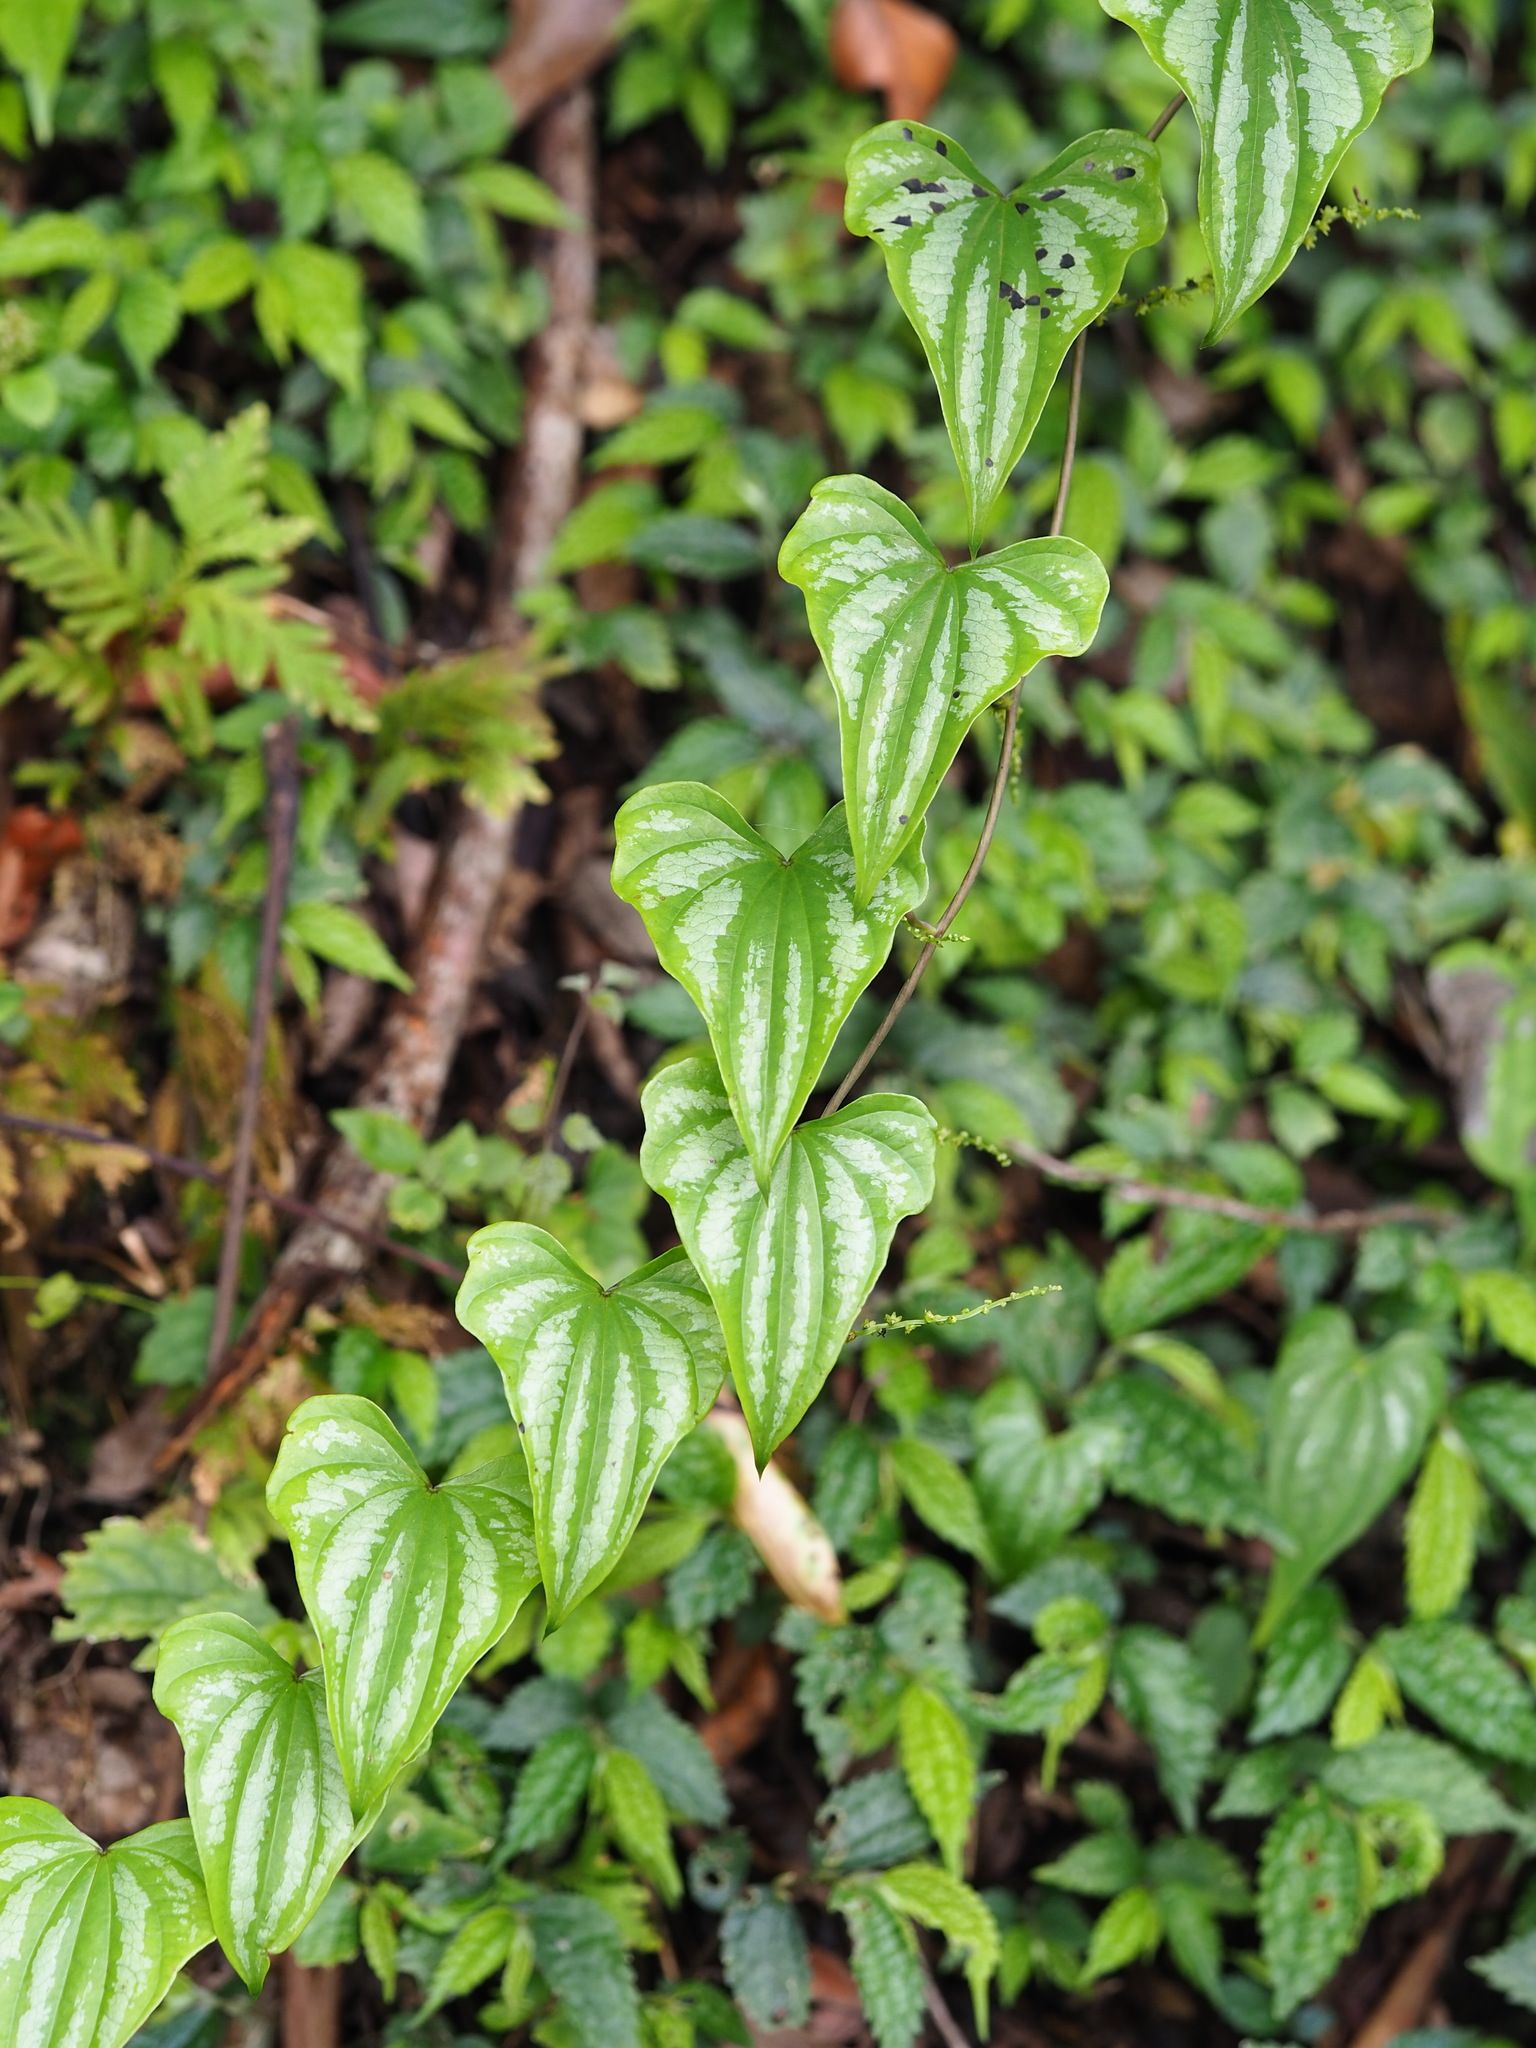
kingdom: Plantae
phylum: Tracheophyta
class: Liliopsida
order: Dioscoreales
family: Dioscoreaceae
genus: Dioscorea
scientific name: Dioscorea collettii
